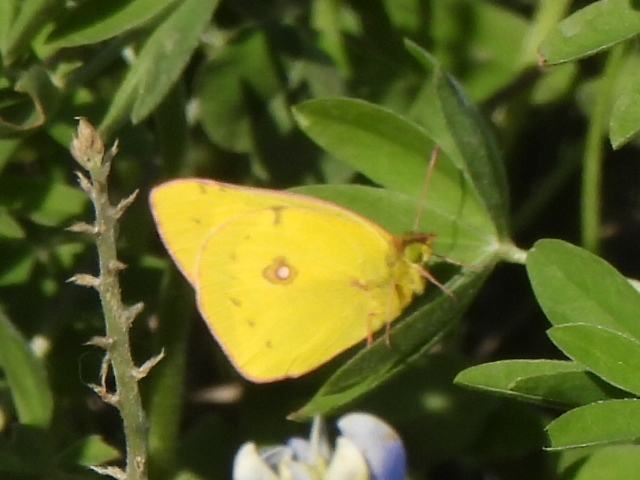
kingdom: Animalia
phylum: Arthropoda
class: Insecta
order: Lepidoptera
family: Pieridae
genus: Colias
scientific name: Colias eurytheme
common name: Alfalfa butterfly
